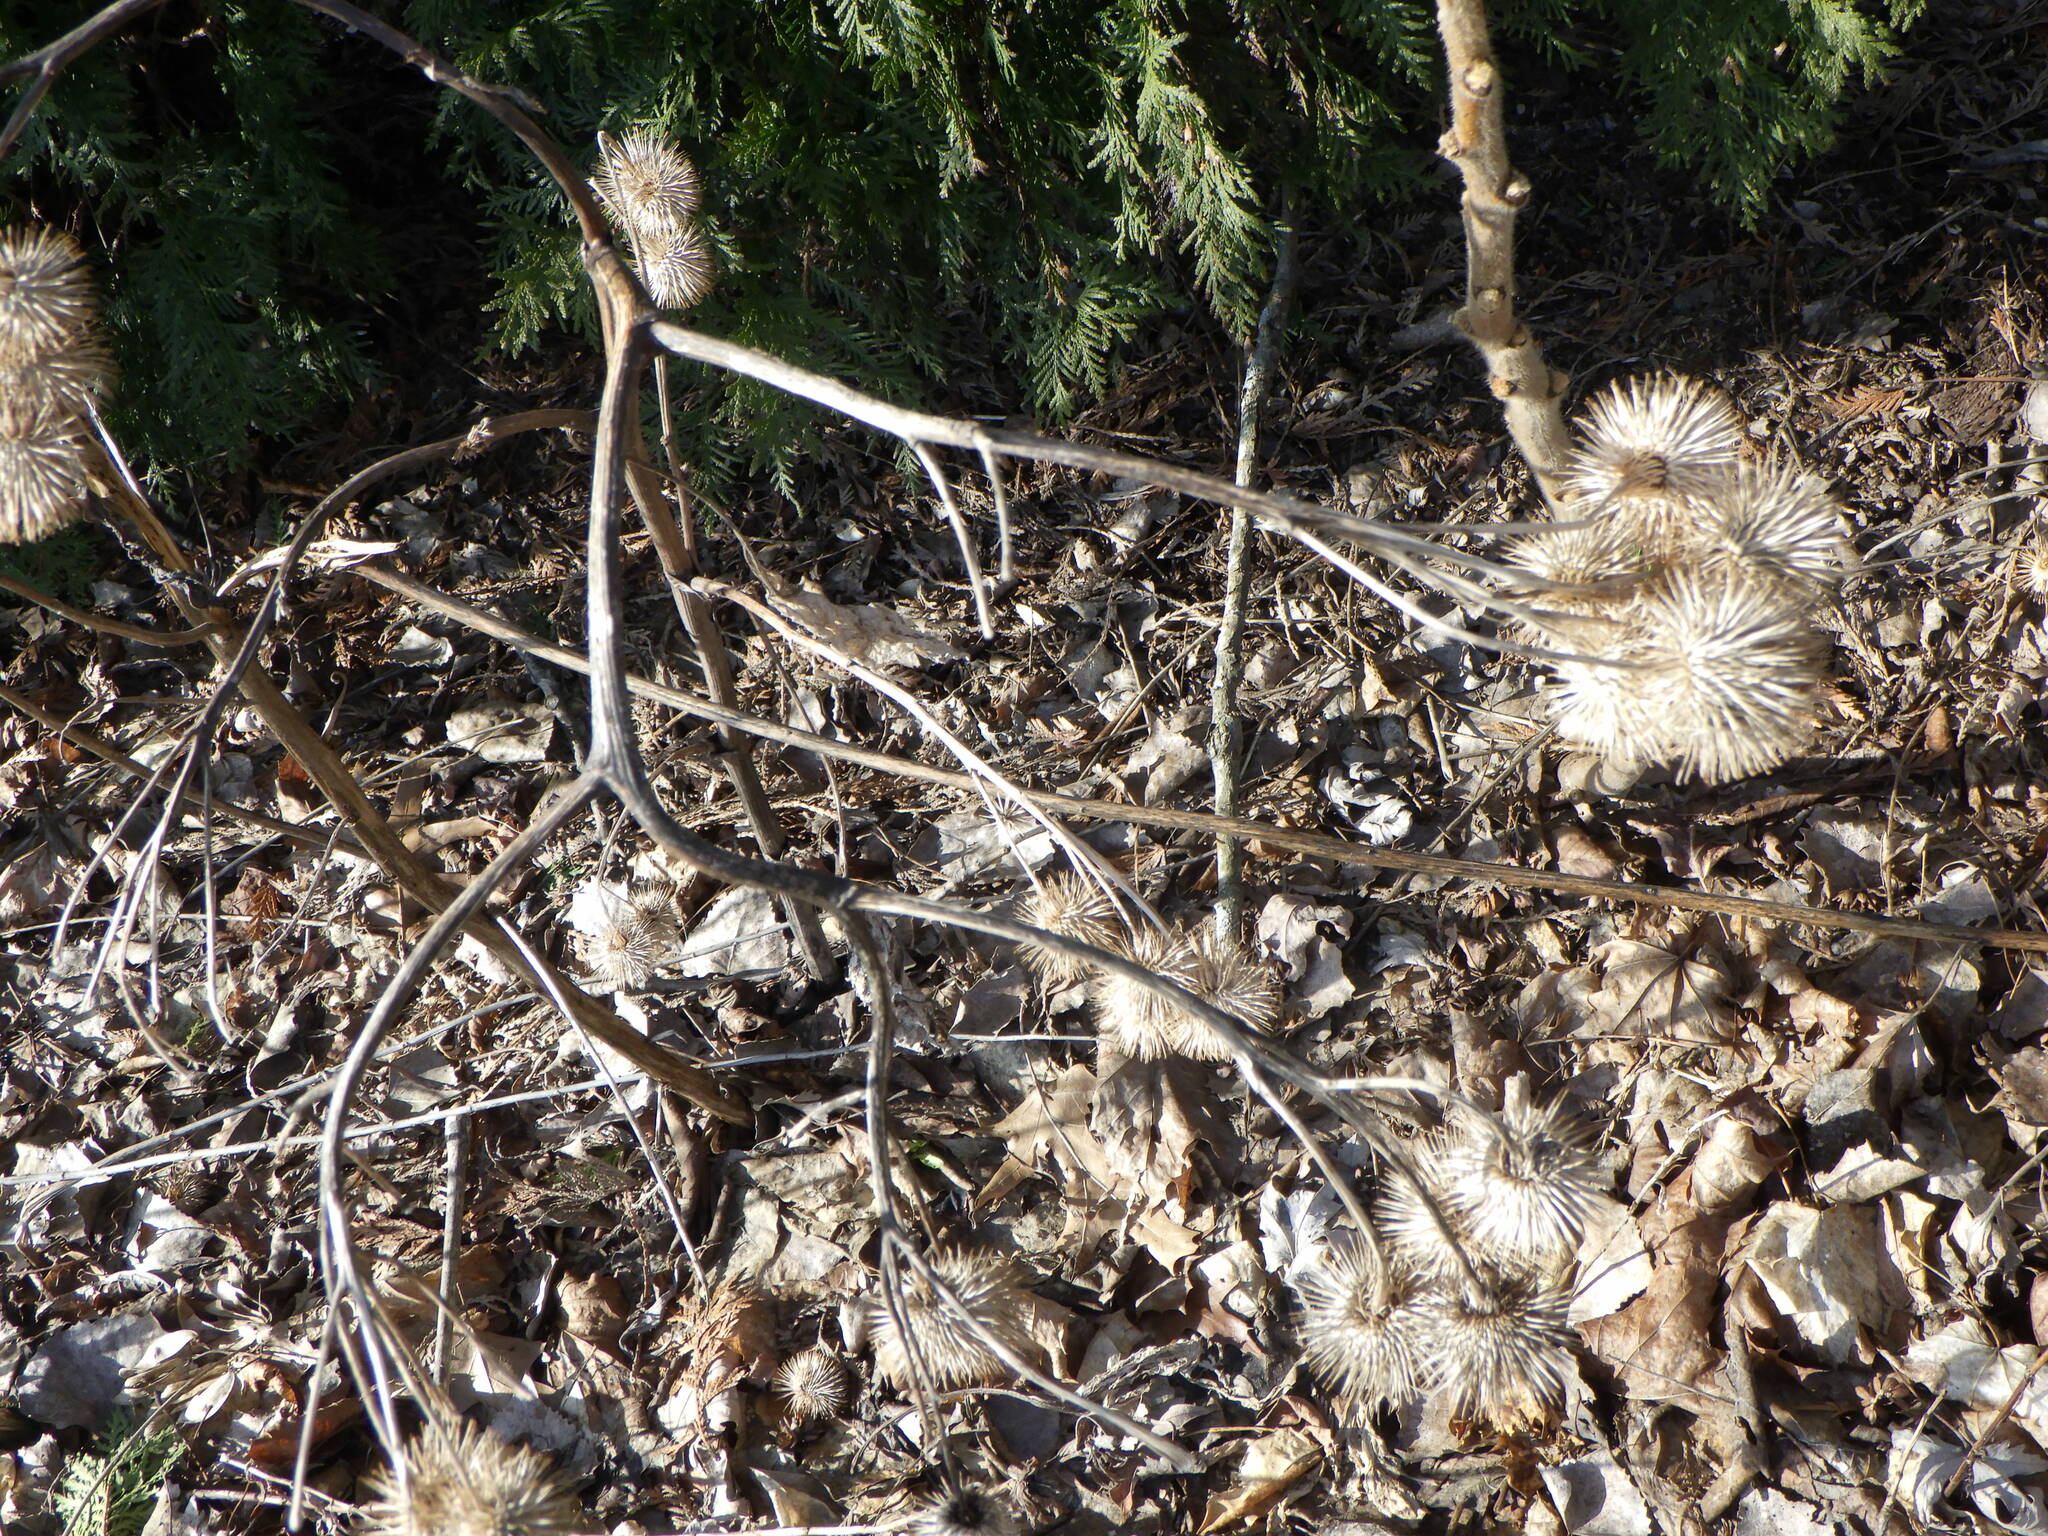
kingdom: Plantae
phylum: Tracheophyta
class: Magnoliopsida
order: Asterales
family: Asteraceae
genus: Arctium
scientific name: Arctium lappa
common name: Greater burdock
